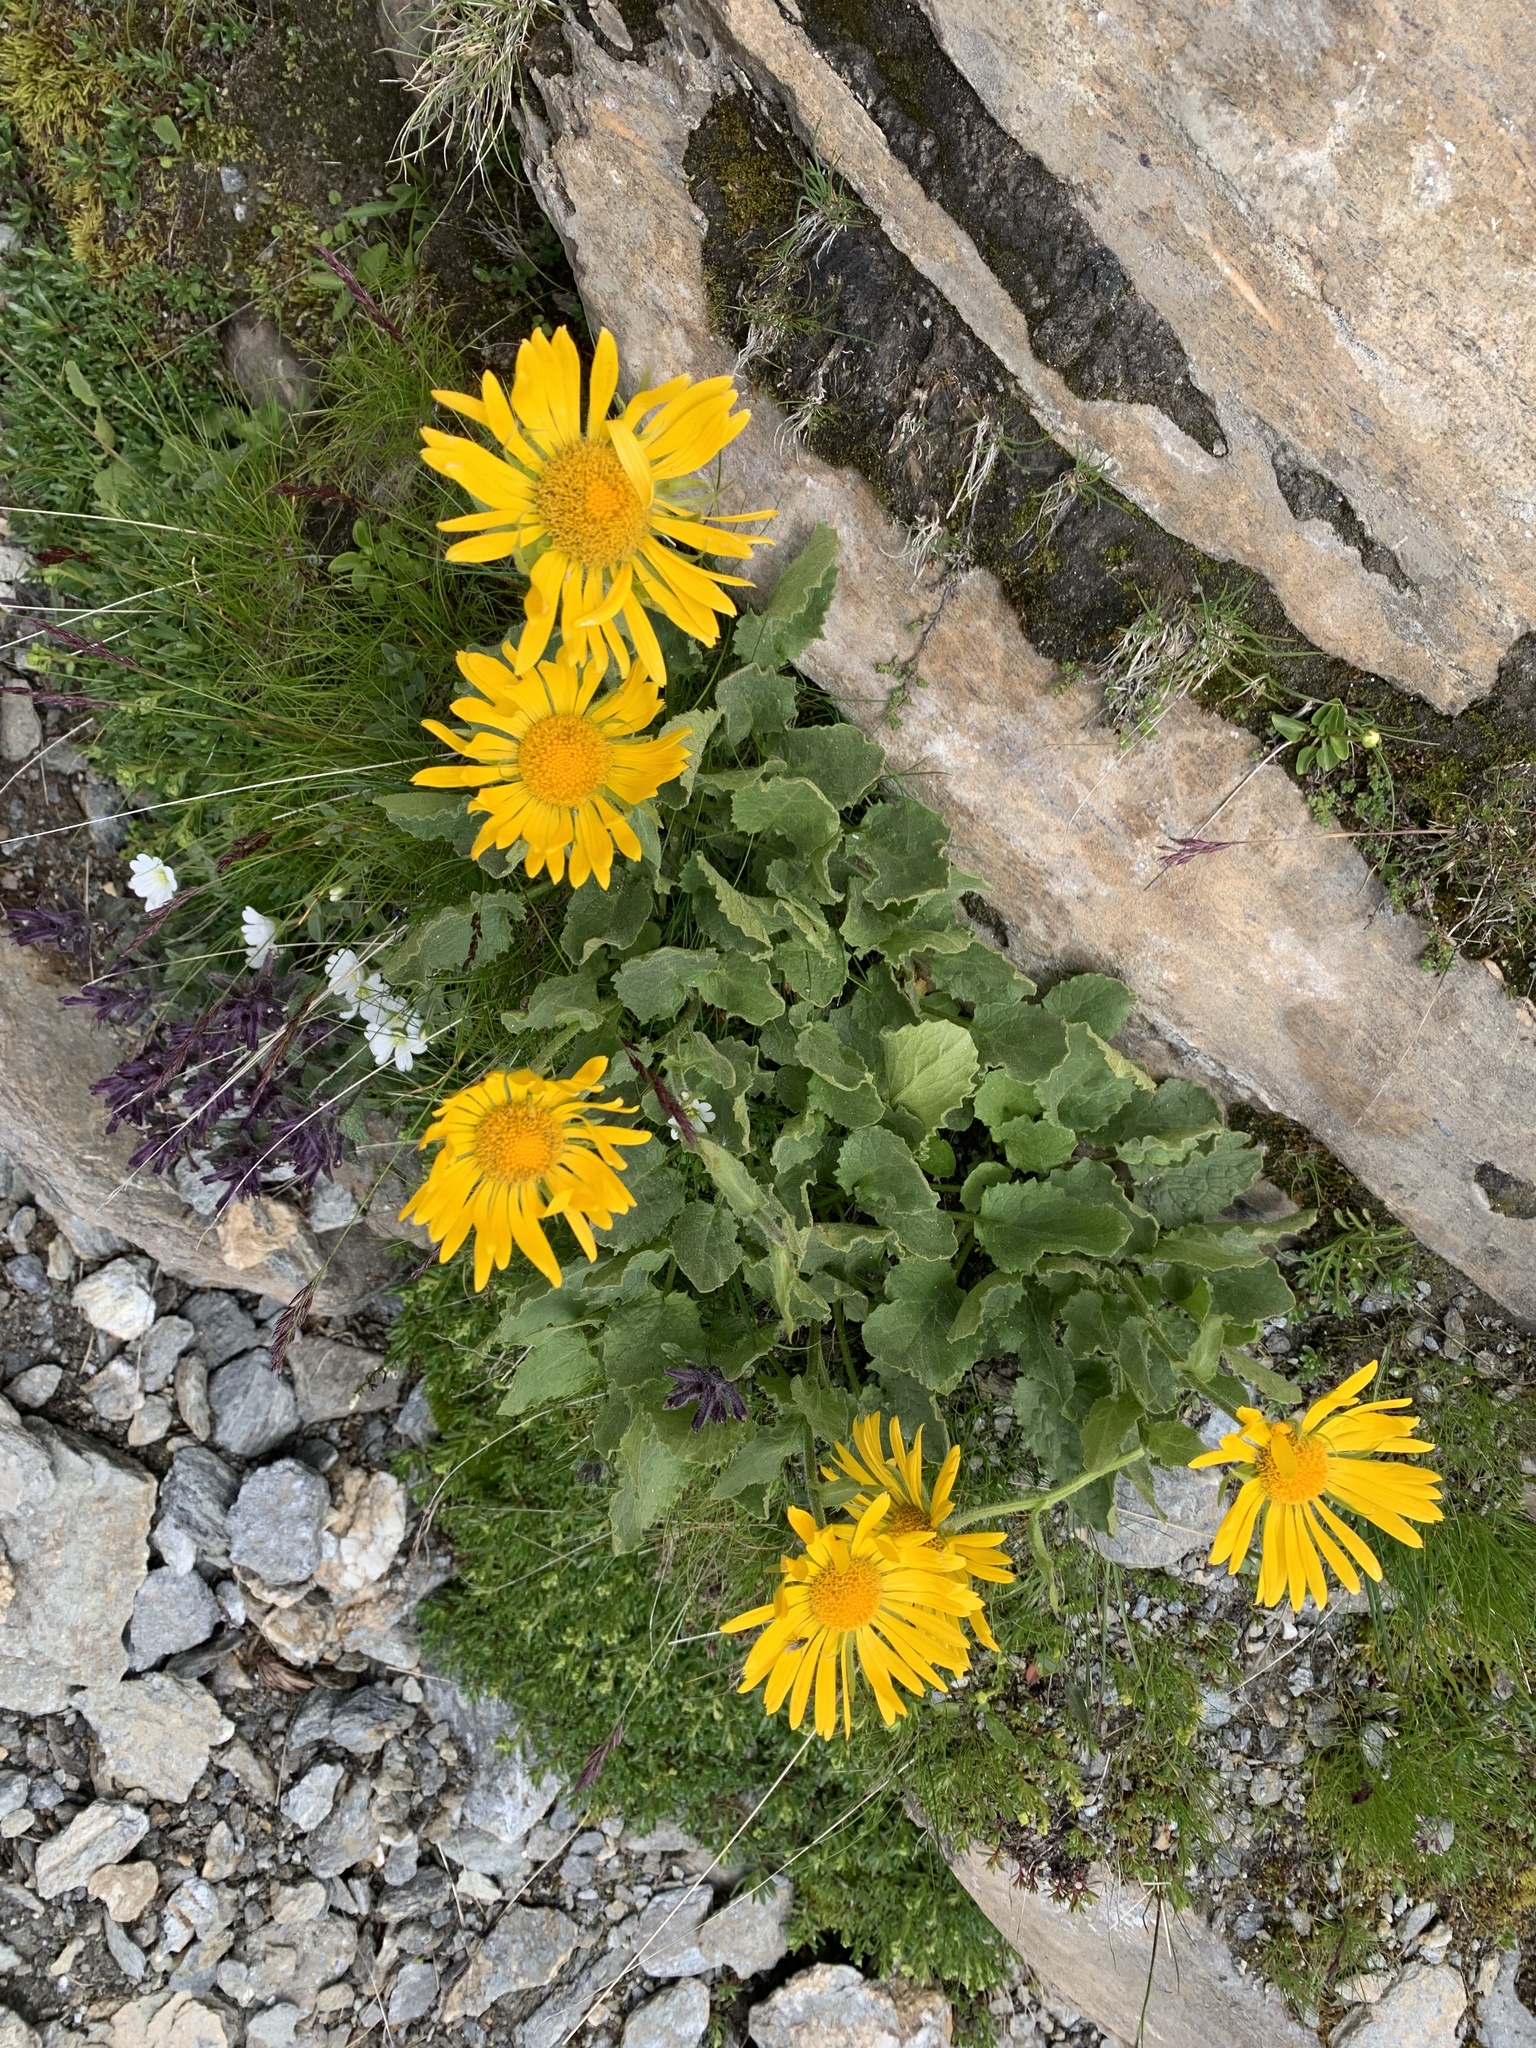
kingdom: Plantae
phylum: Tracheophyta
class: Magnoliopsida
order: Asterales
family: Asteraceae
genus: Doronicum
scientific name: Doronicum grandiflorum
